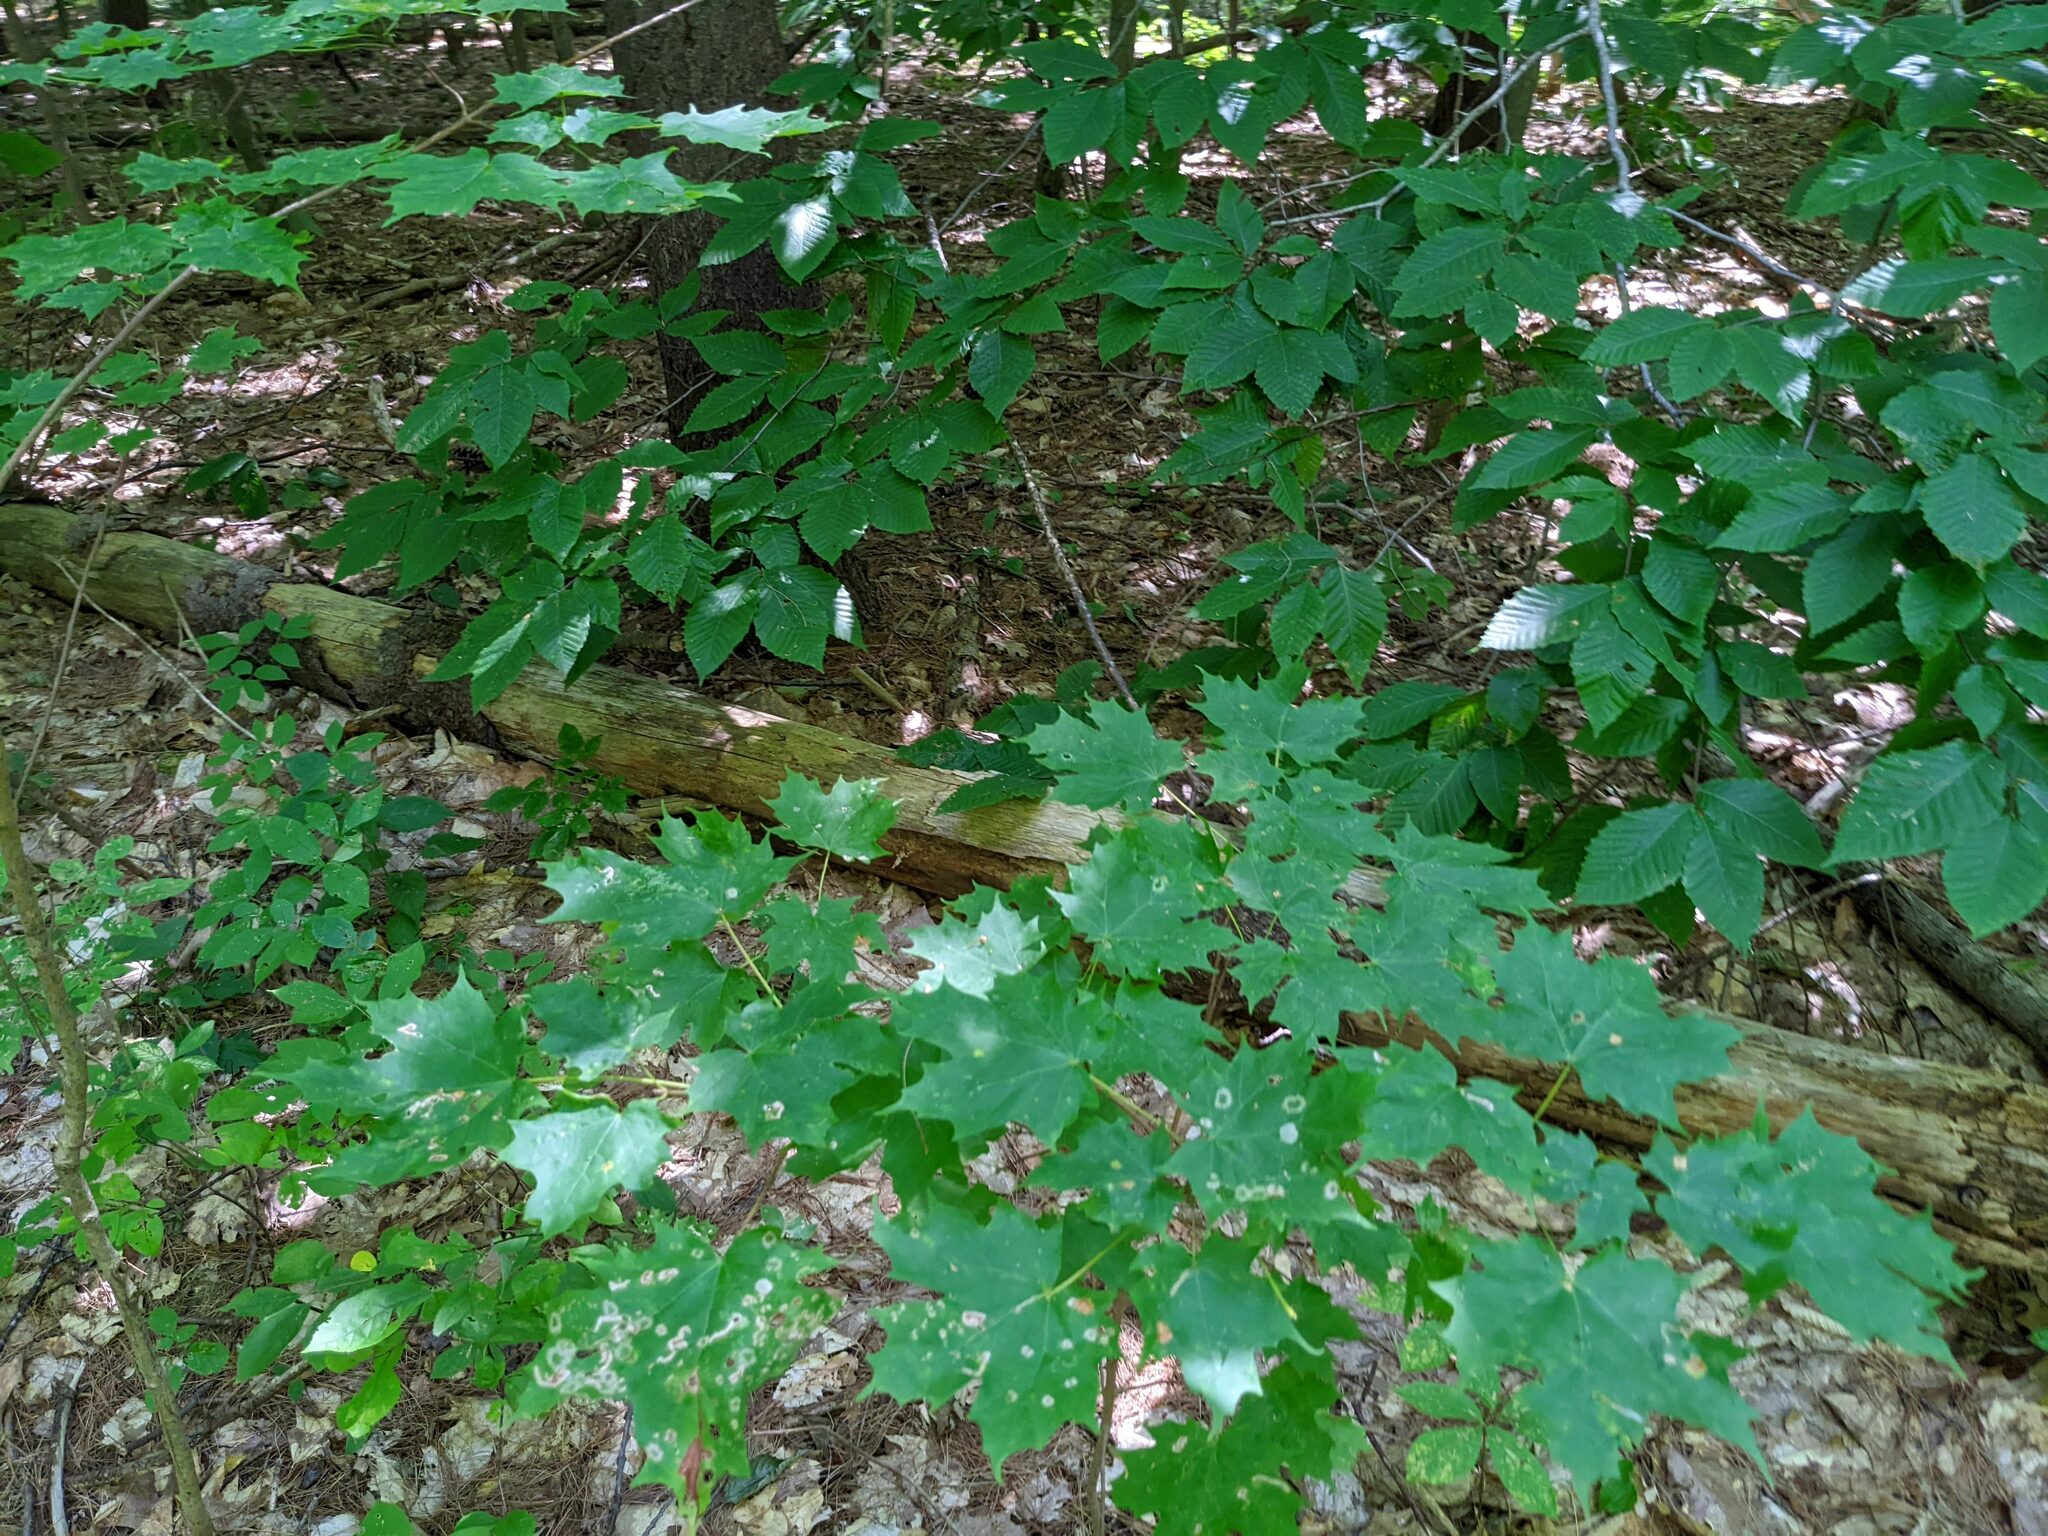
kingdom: Plantae
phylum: Tracheophyta
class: Magnoliopsida
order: Sapindales
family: Sapindaceae
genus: Acer
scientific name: Acer saccharum
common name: Sugar maple
